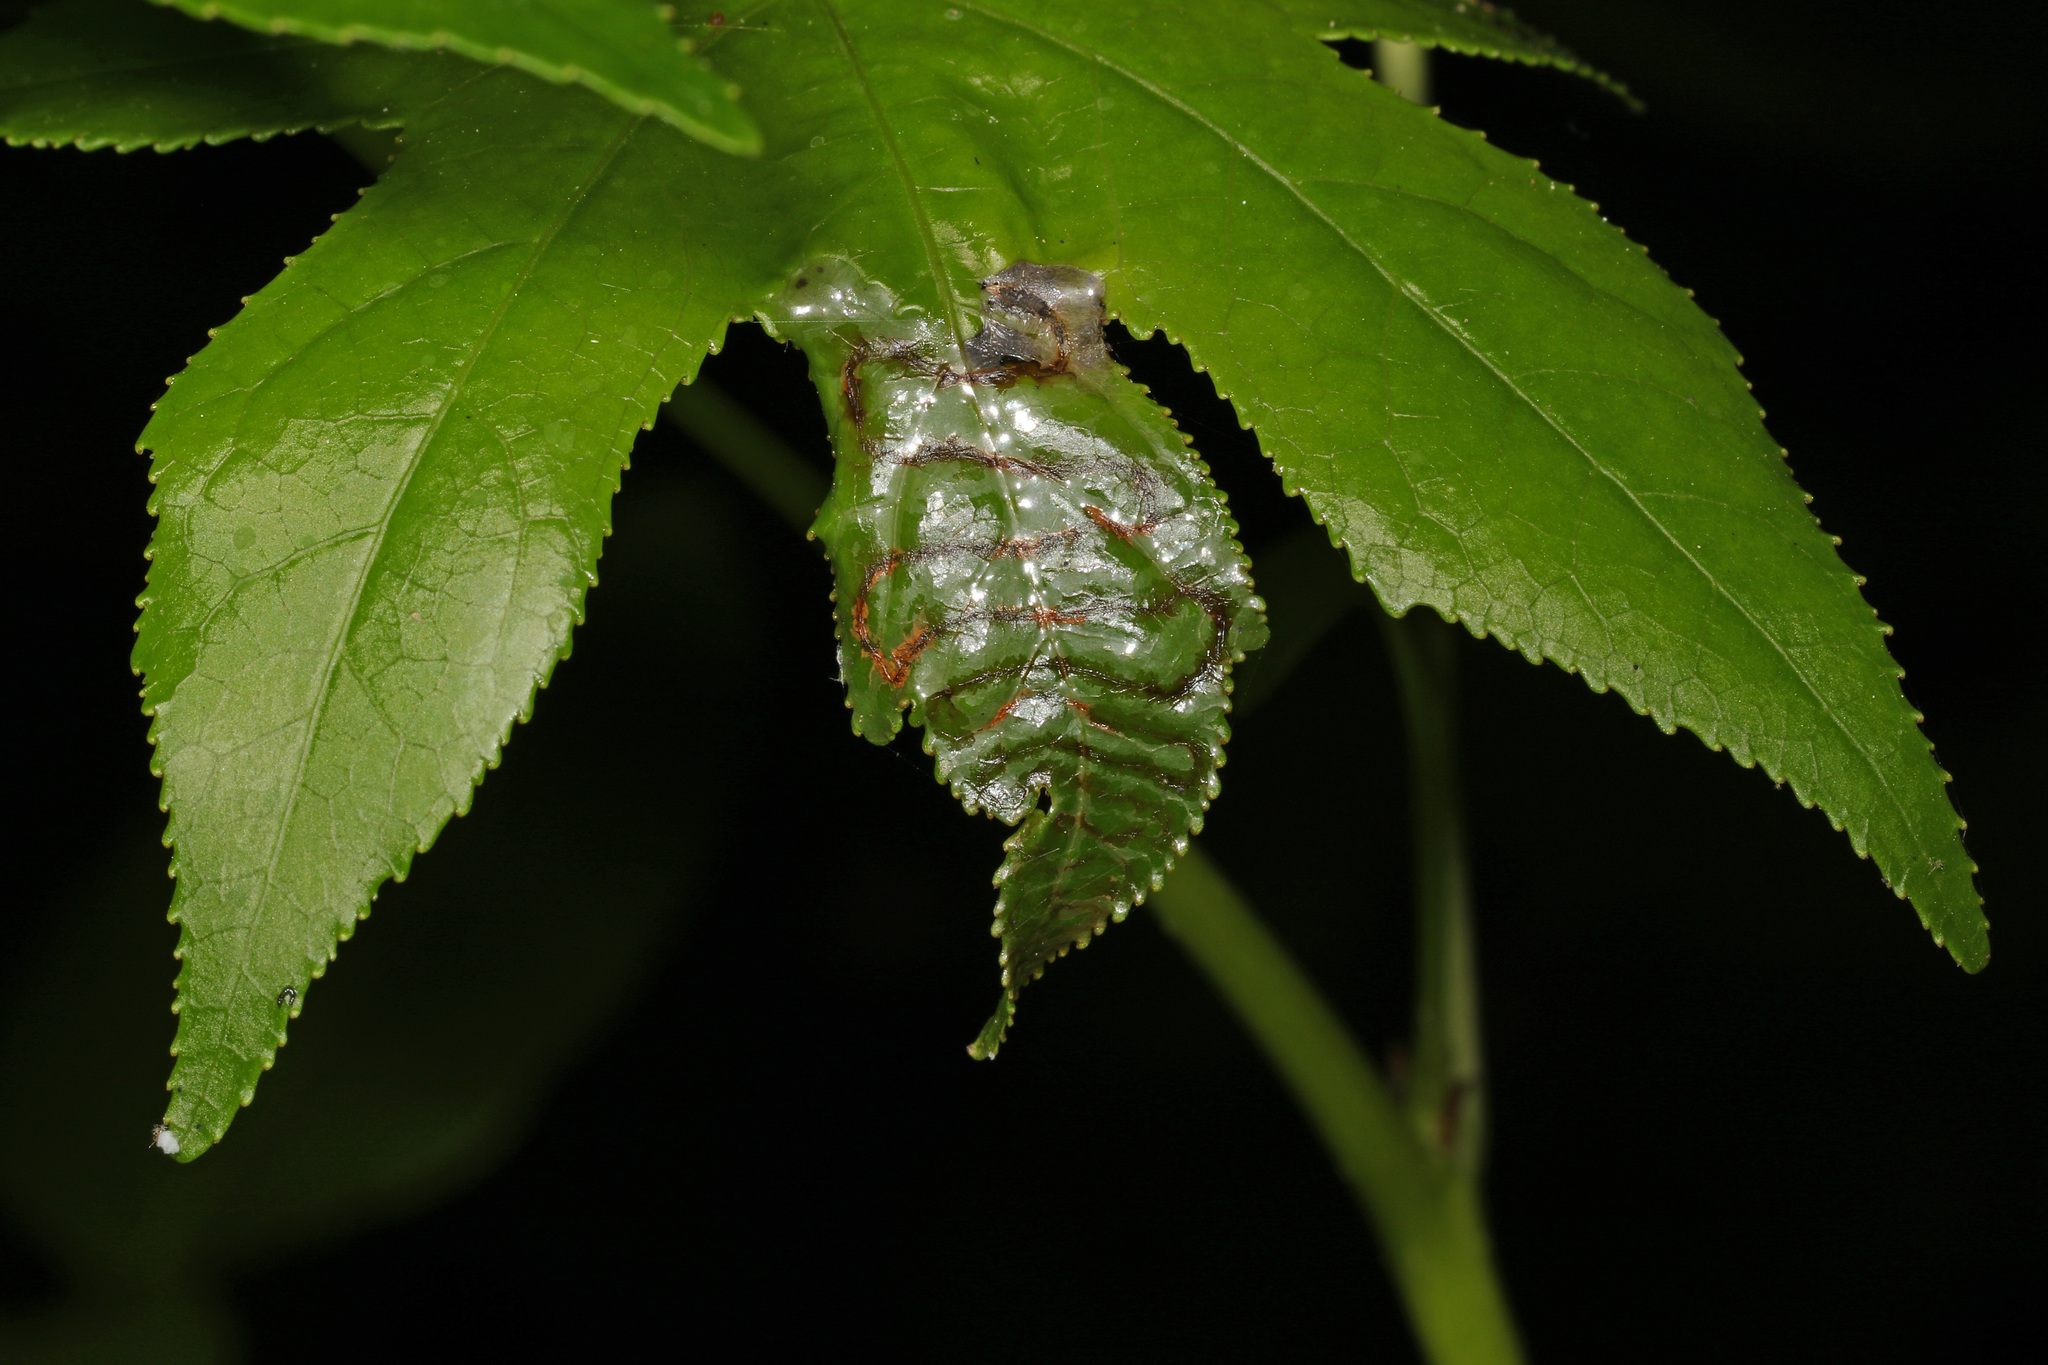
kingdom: Animalia
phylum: Arthropoda
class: Insecta
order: Lepidoptera
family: Gracillariidae
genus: Phyllocnistis
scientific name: Phyllocnistis liquidambarisella
